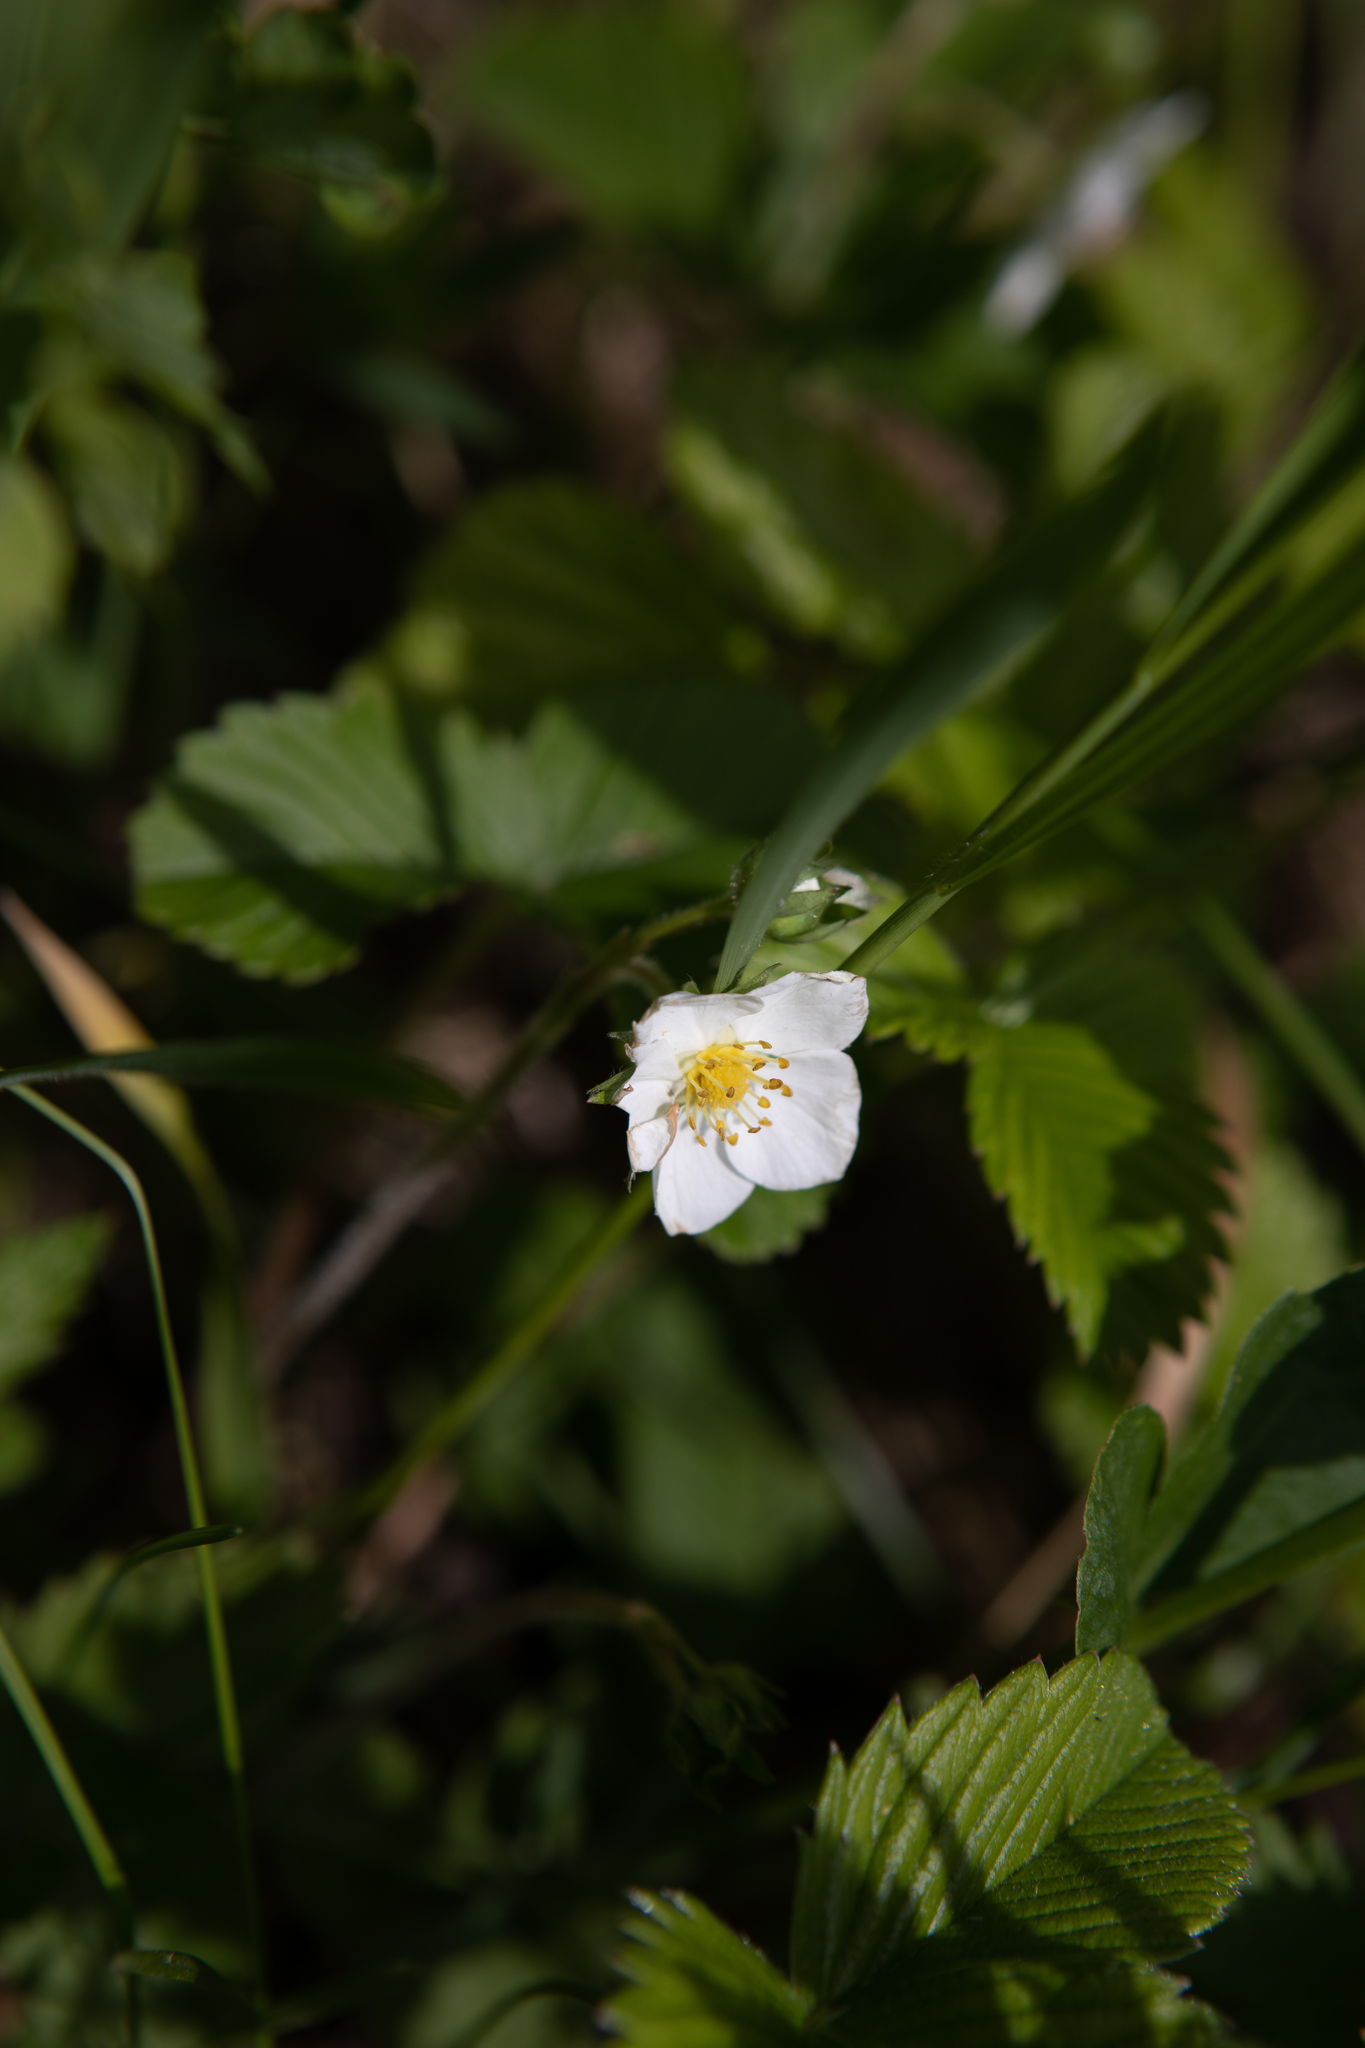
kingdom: Plantae
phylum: Tracheophyta
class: Magnoliopsida
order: Rosales
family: Rosaceae
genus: Fragaria
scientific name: Fragaria viridis
